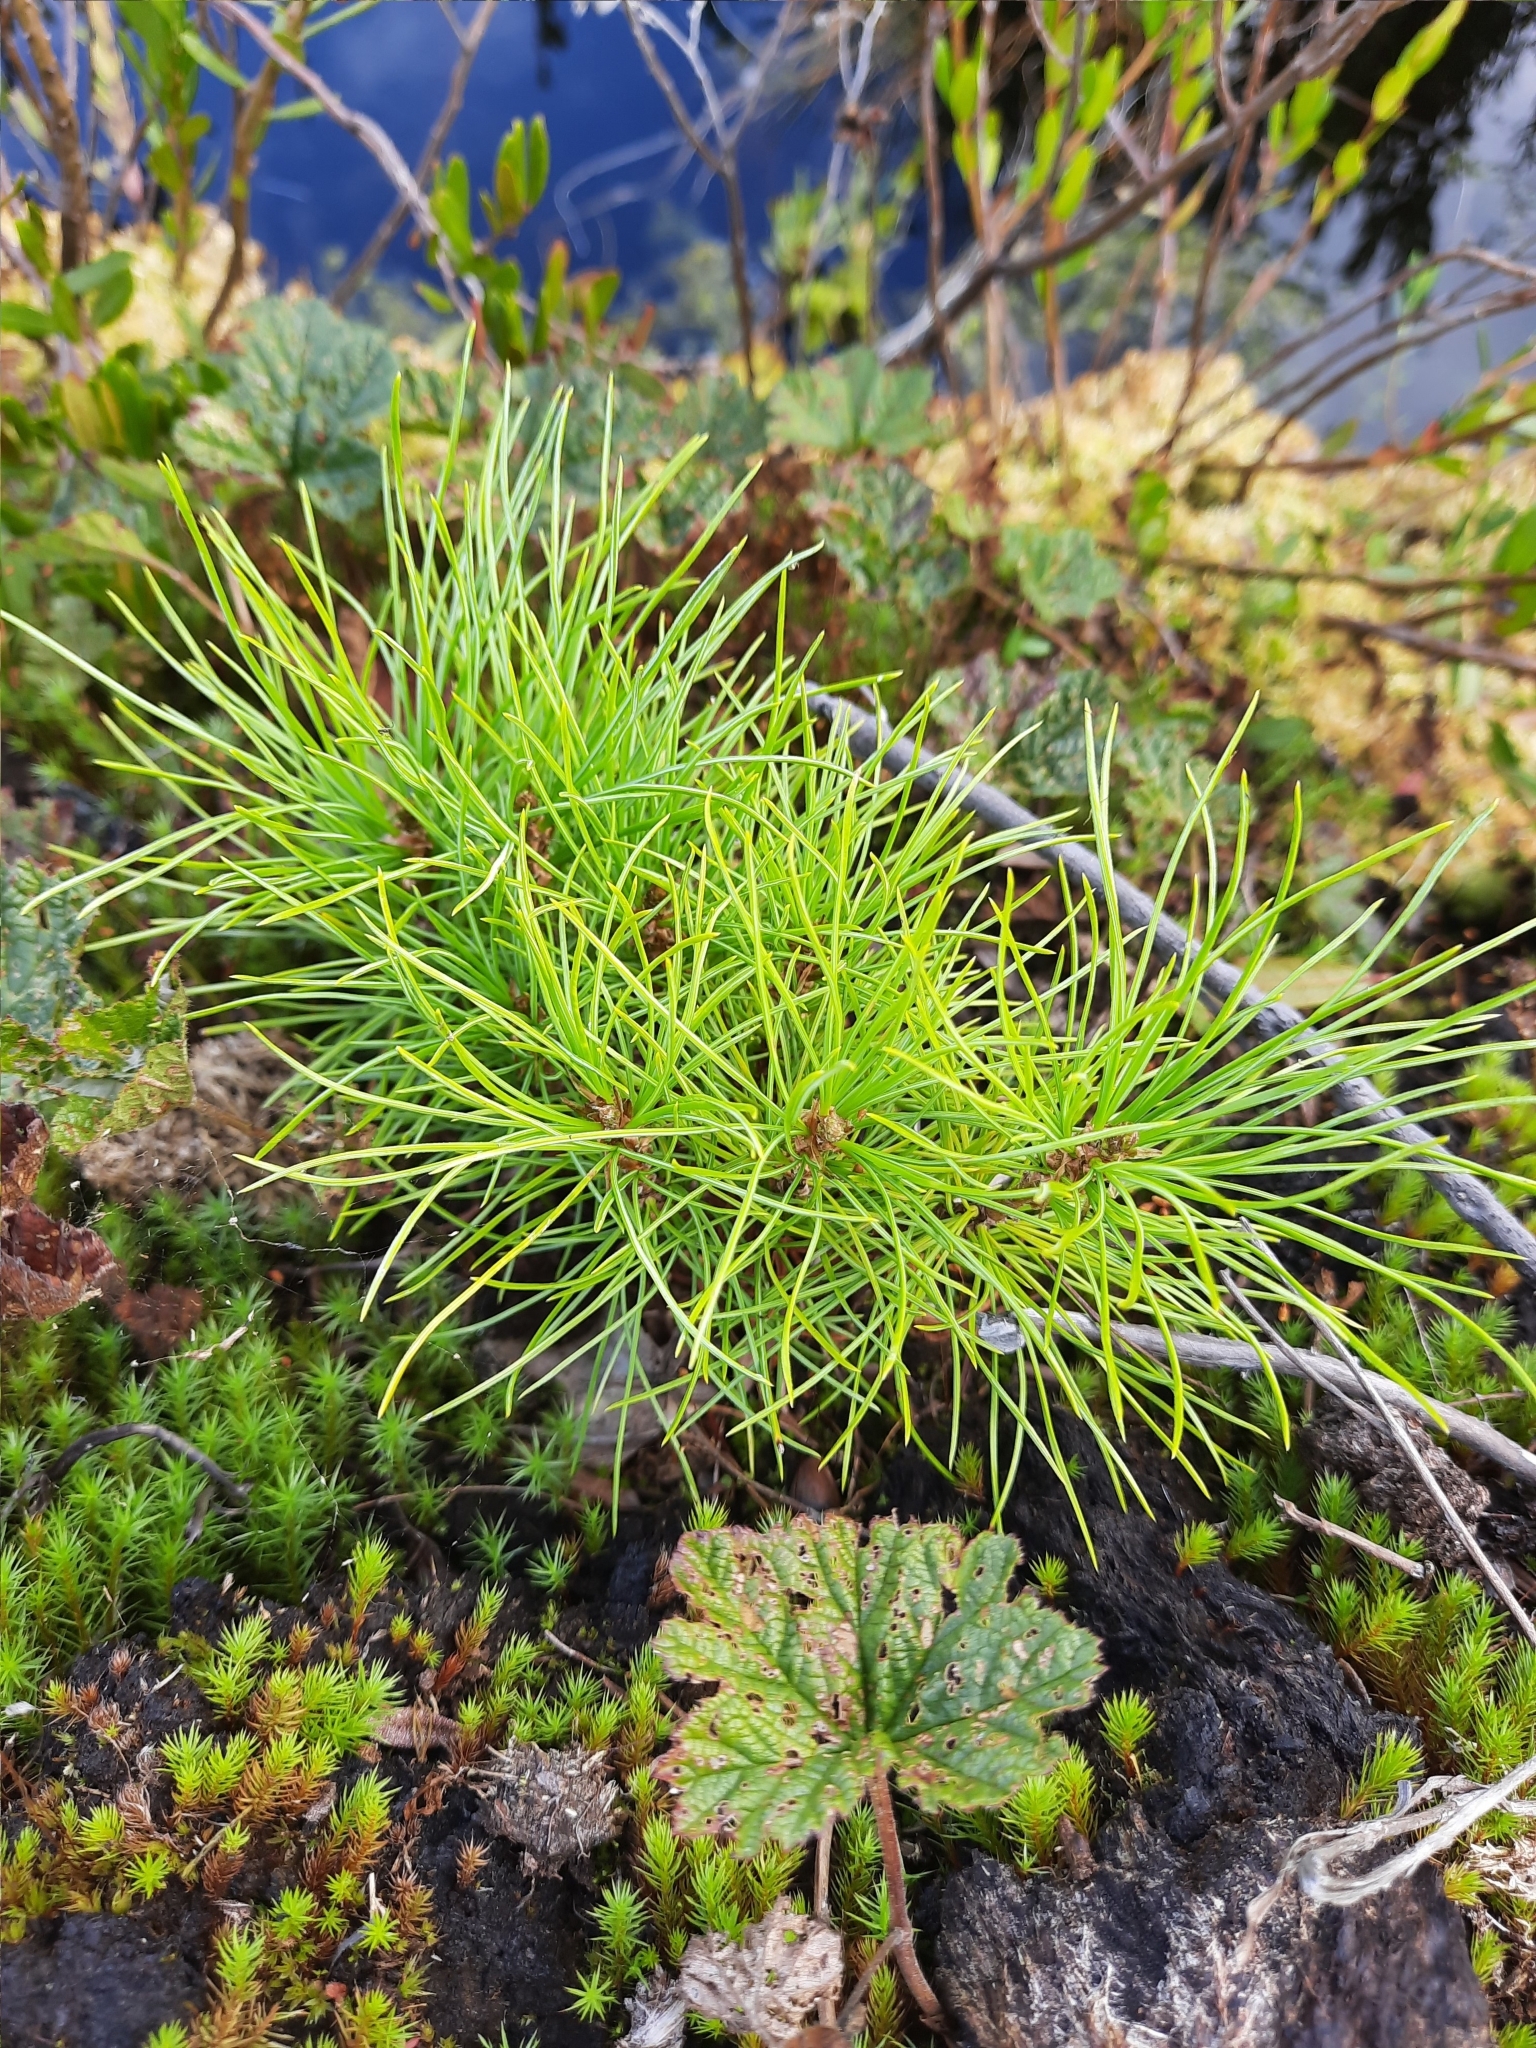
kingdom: Plantae
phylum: Tracheophyta
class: Pinopsida
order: Pinales
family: Pinaceae
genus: Pinus
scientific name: Pinus sibirica
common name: Siberian pine
